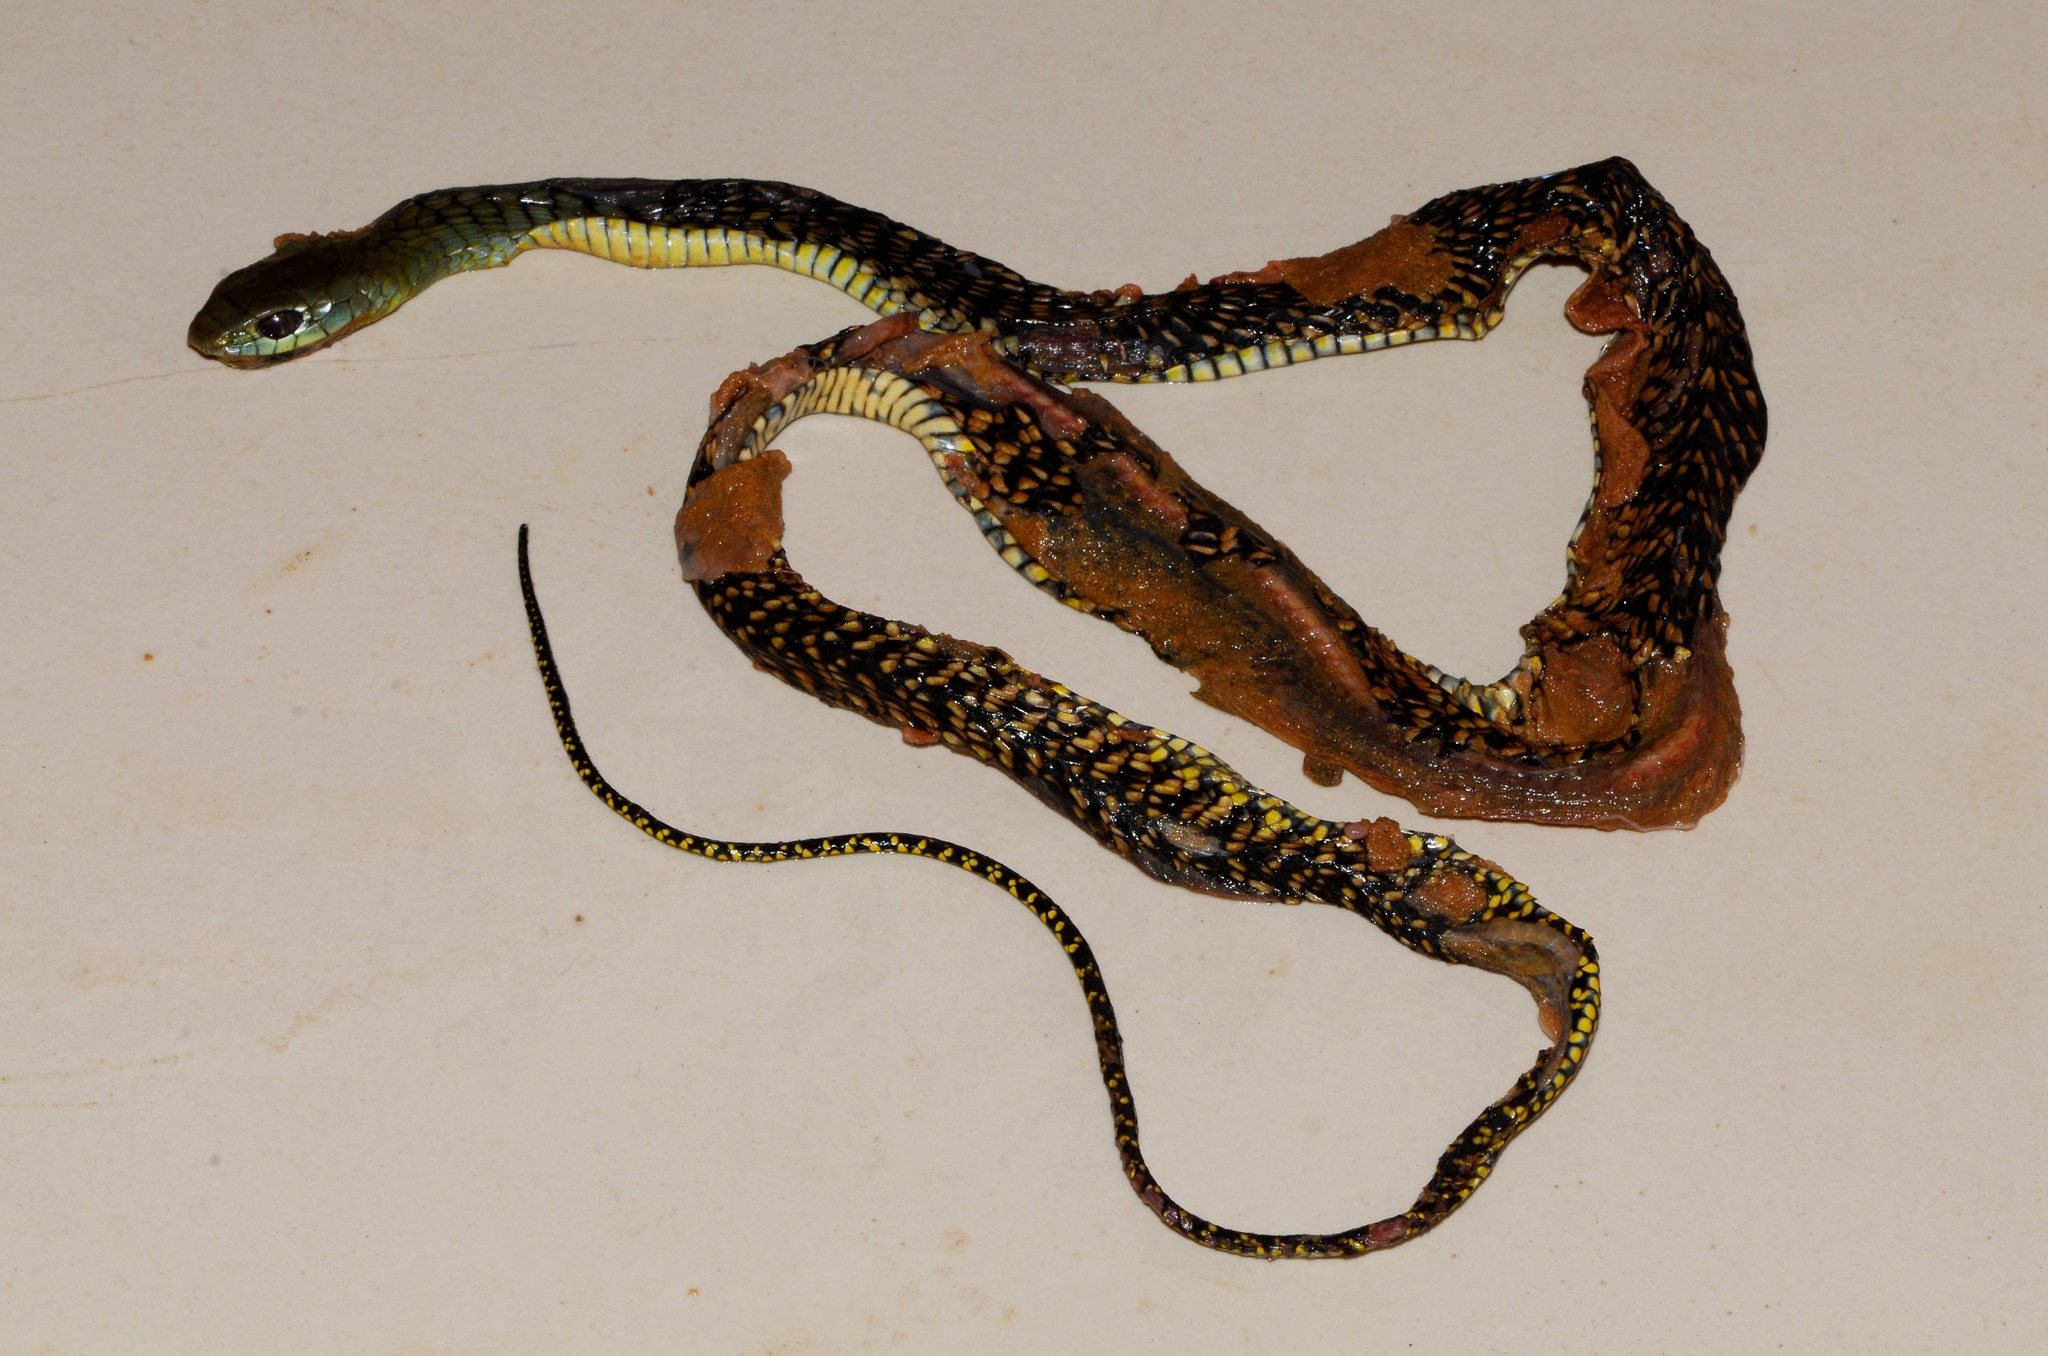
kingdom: Animalia
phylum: Chordata
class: Squamata
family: Colubridae
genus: Thrasops
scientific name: Thrasops jacksonii
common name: Black tree snake
